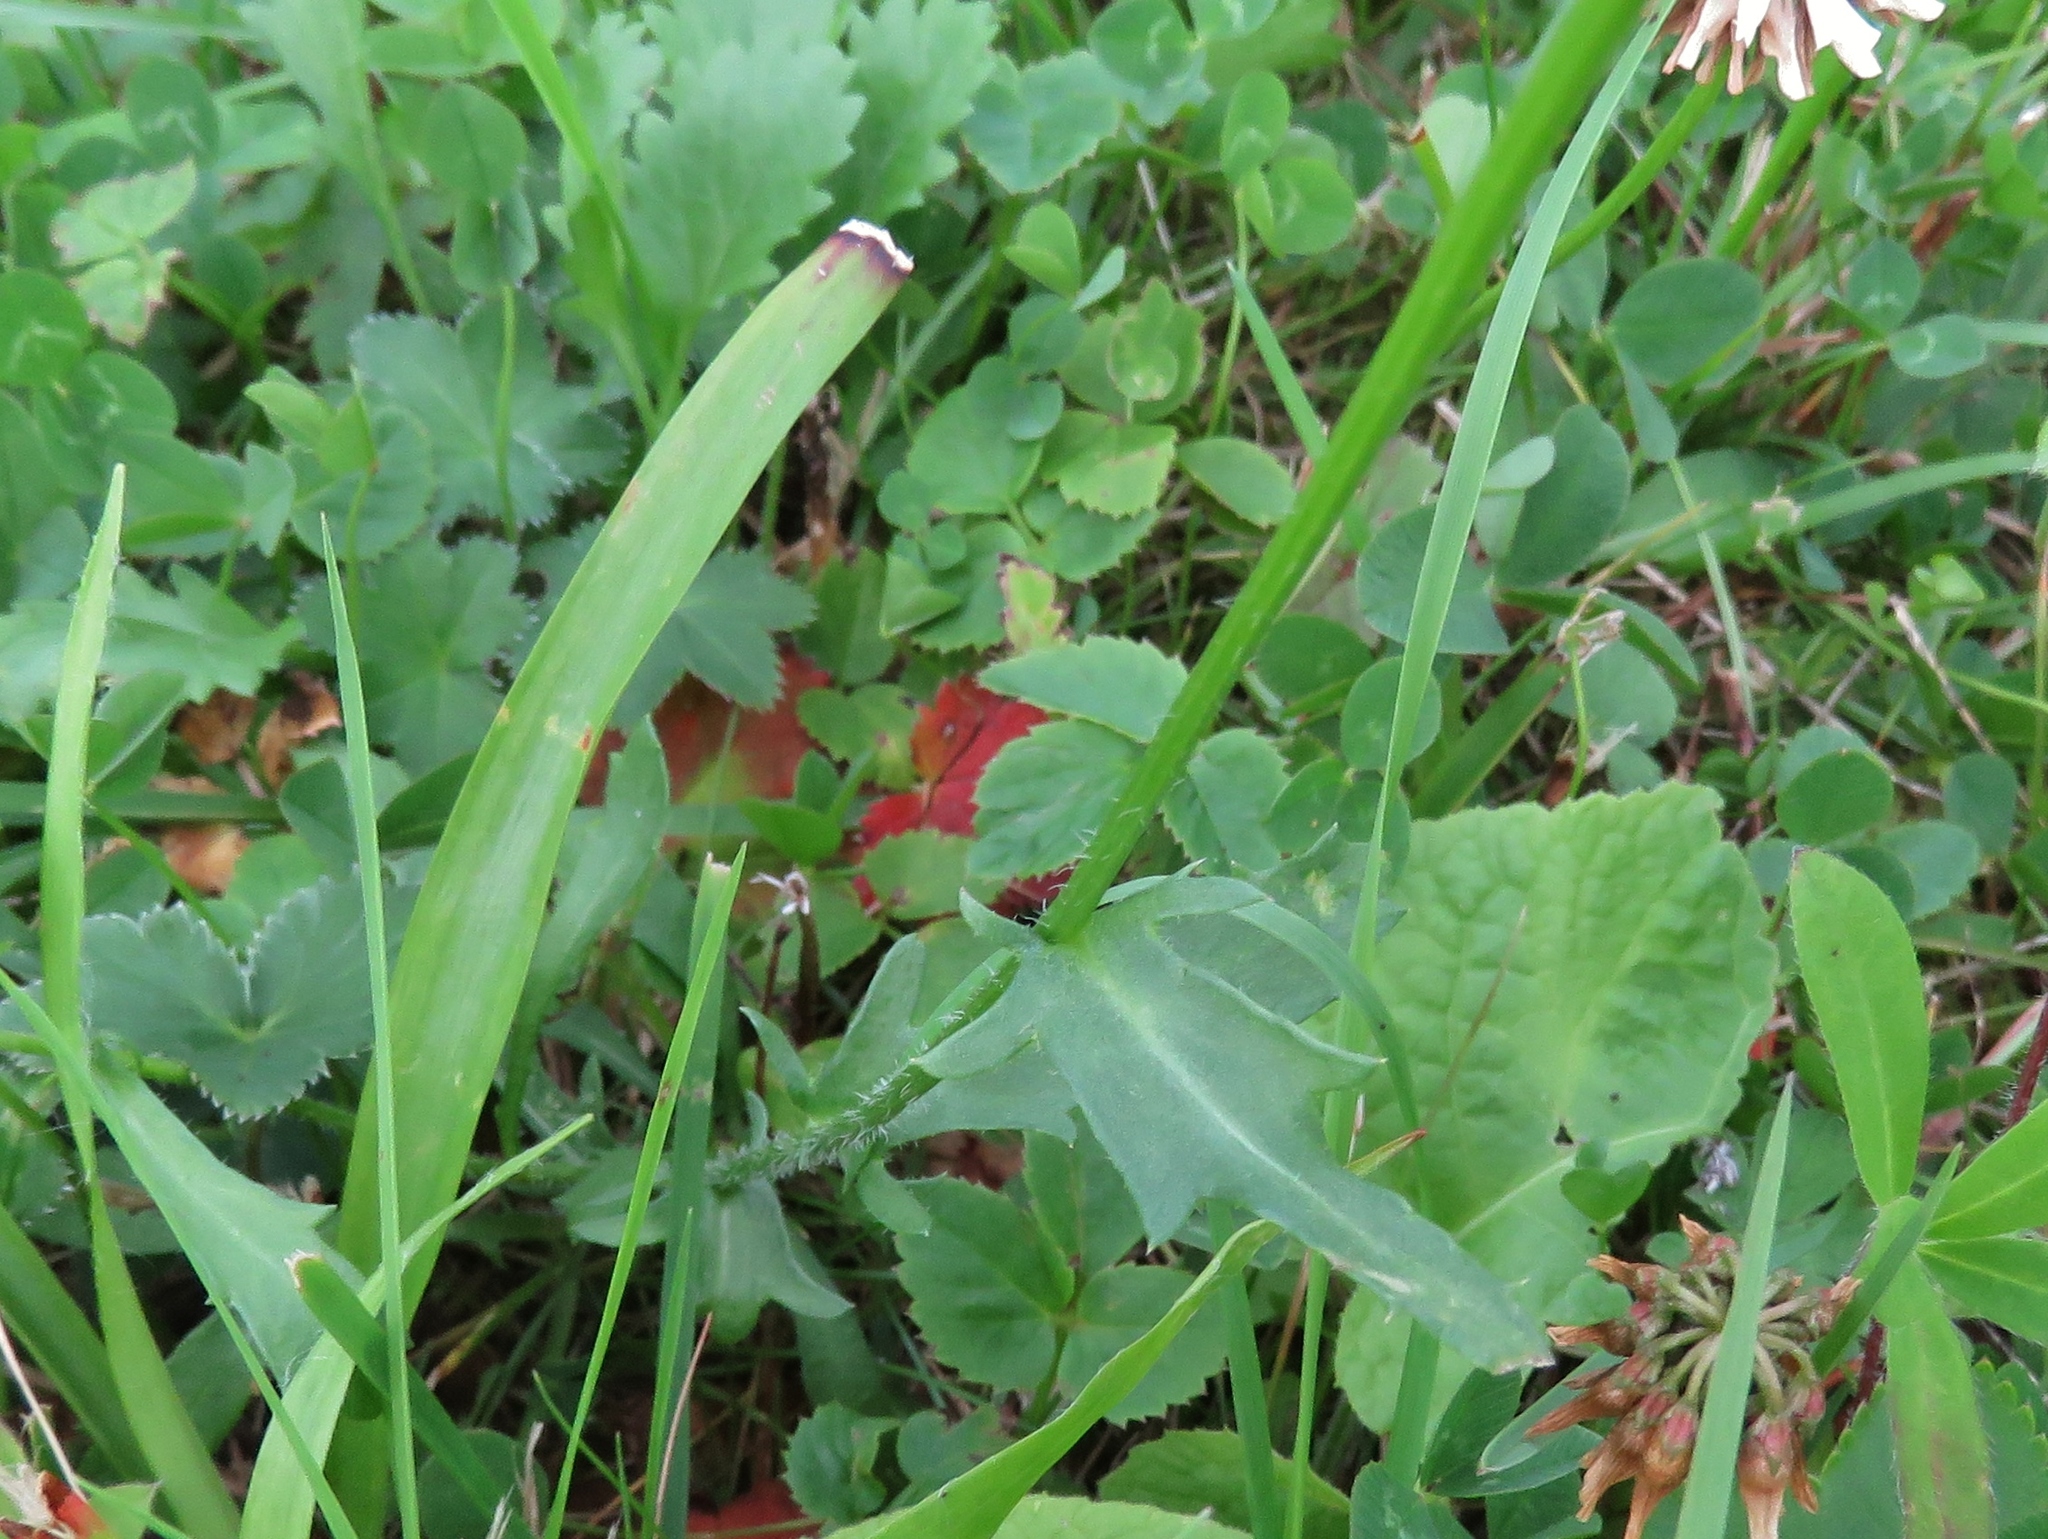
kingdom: Plantae
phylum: Tracheophyta
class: Magnoliopsida
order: Asterales
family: Asteraceae
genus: Leucanthemum
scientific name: Leucanthemum vulgare
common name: Oxeye daisy
